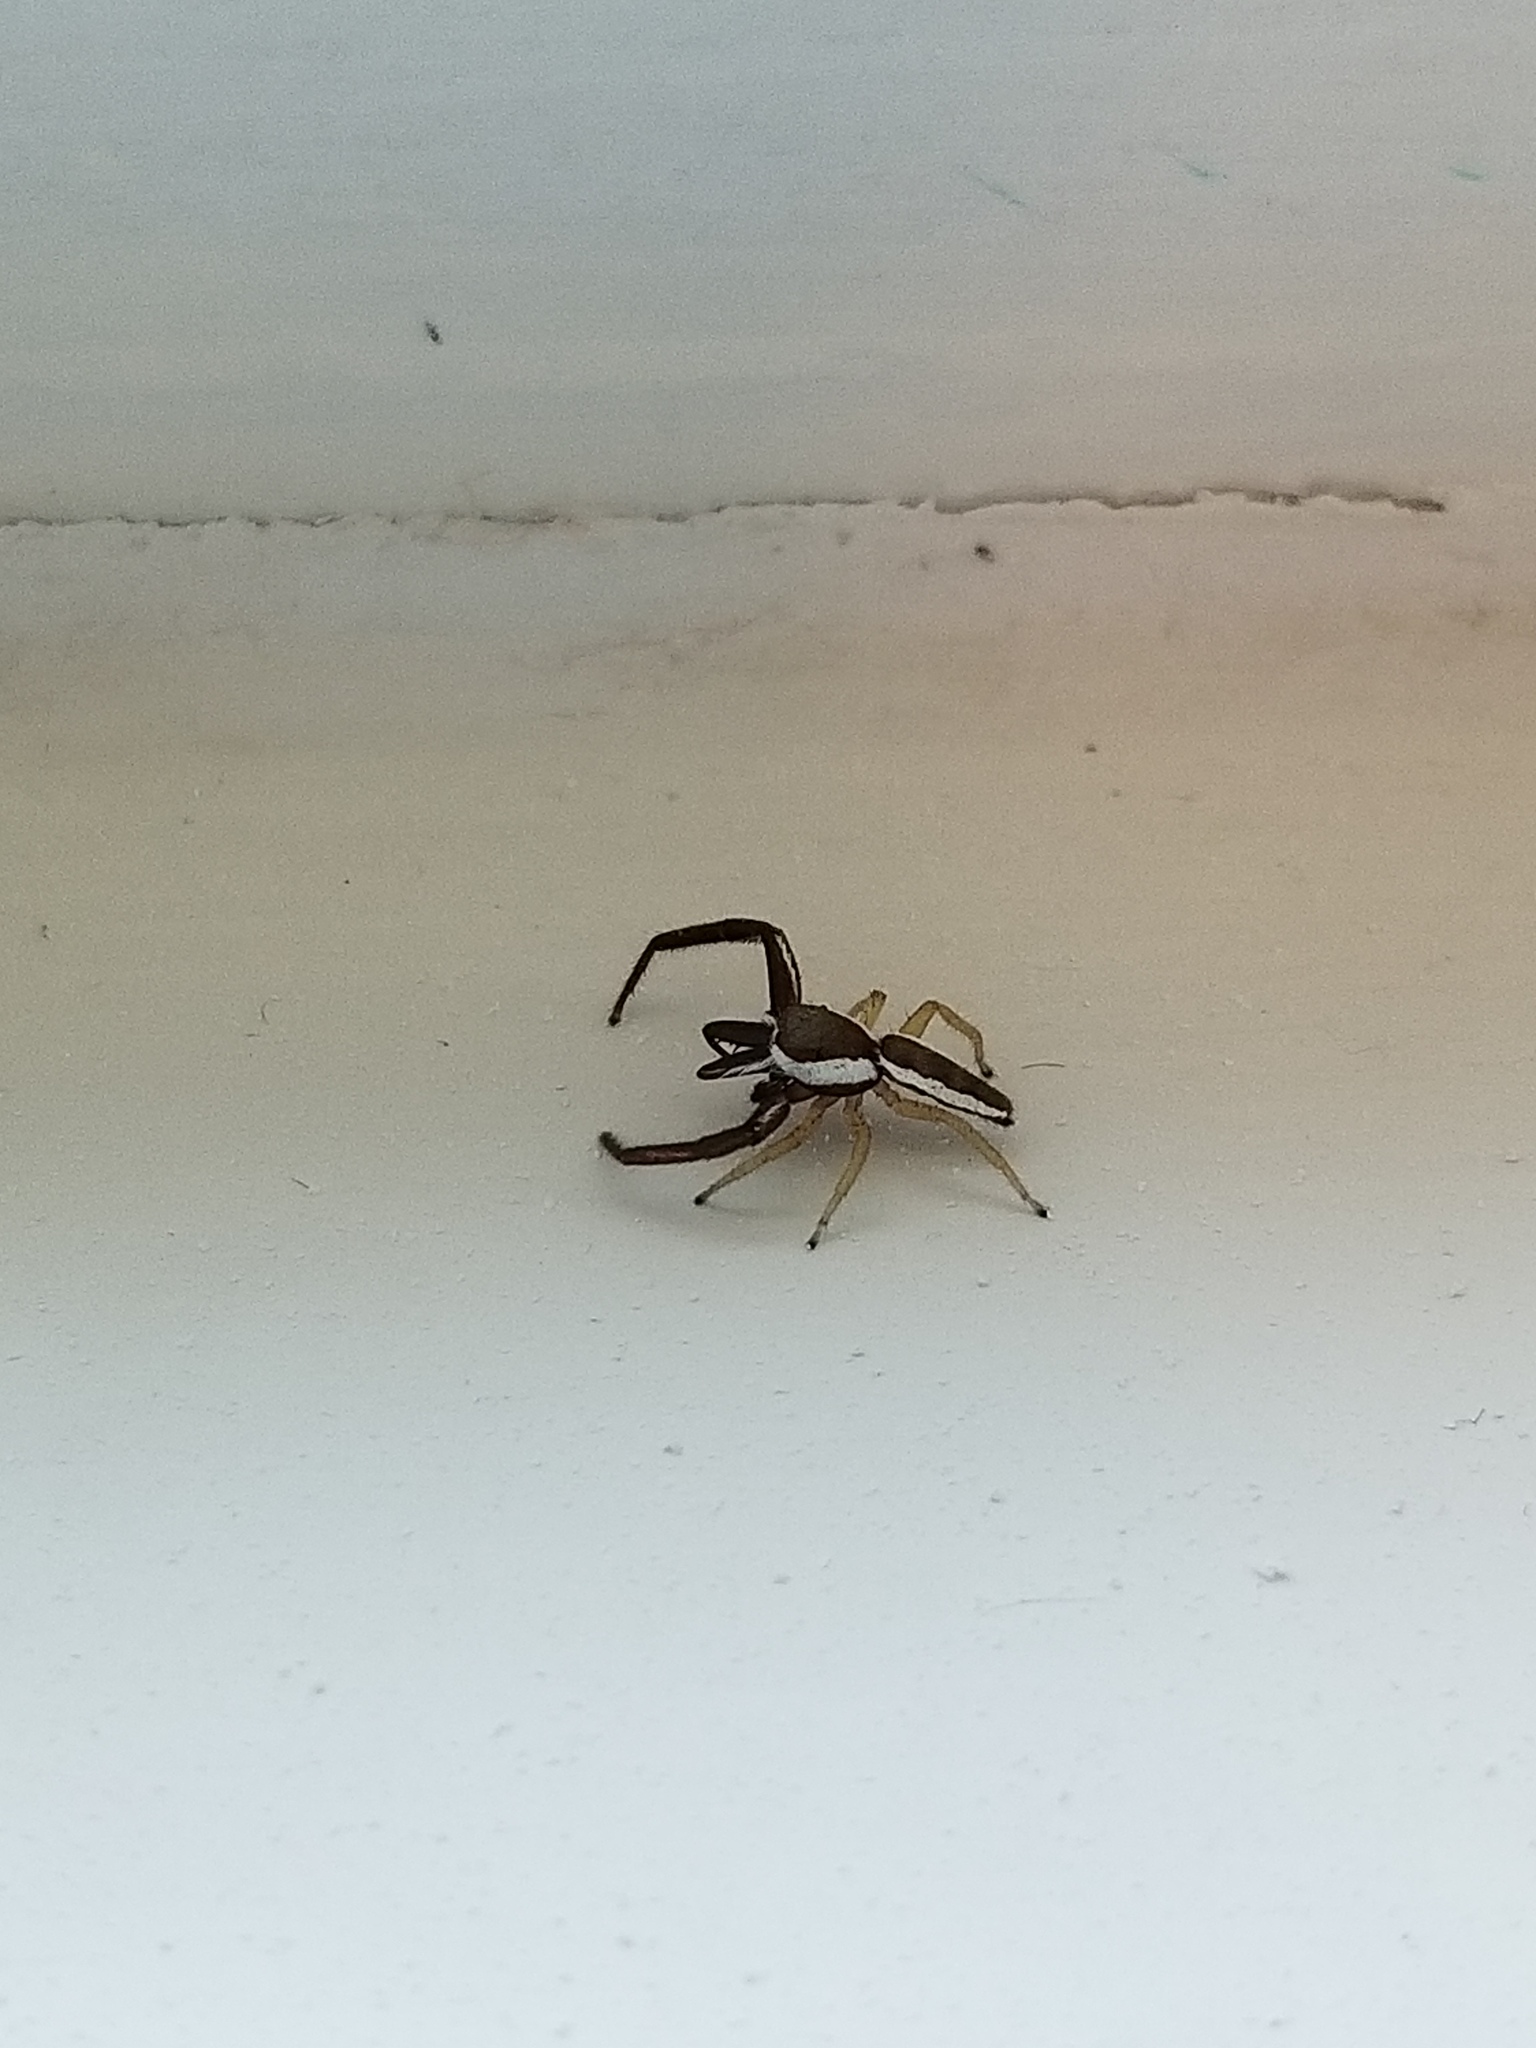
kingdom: Animalia
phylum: Arthropoda
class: Arachnida
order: Araneae
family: Salticidae
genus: Hentzia
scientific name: Hentzia palmarum
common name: Common hentz jumping spider
